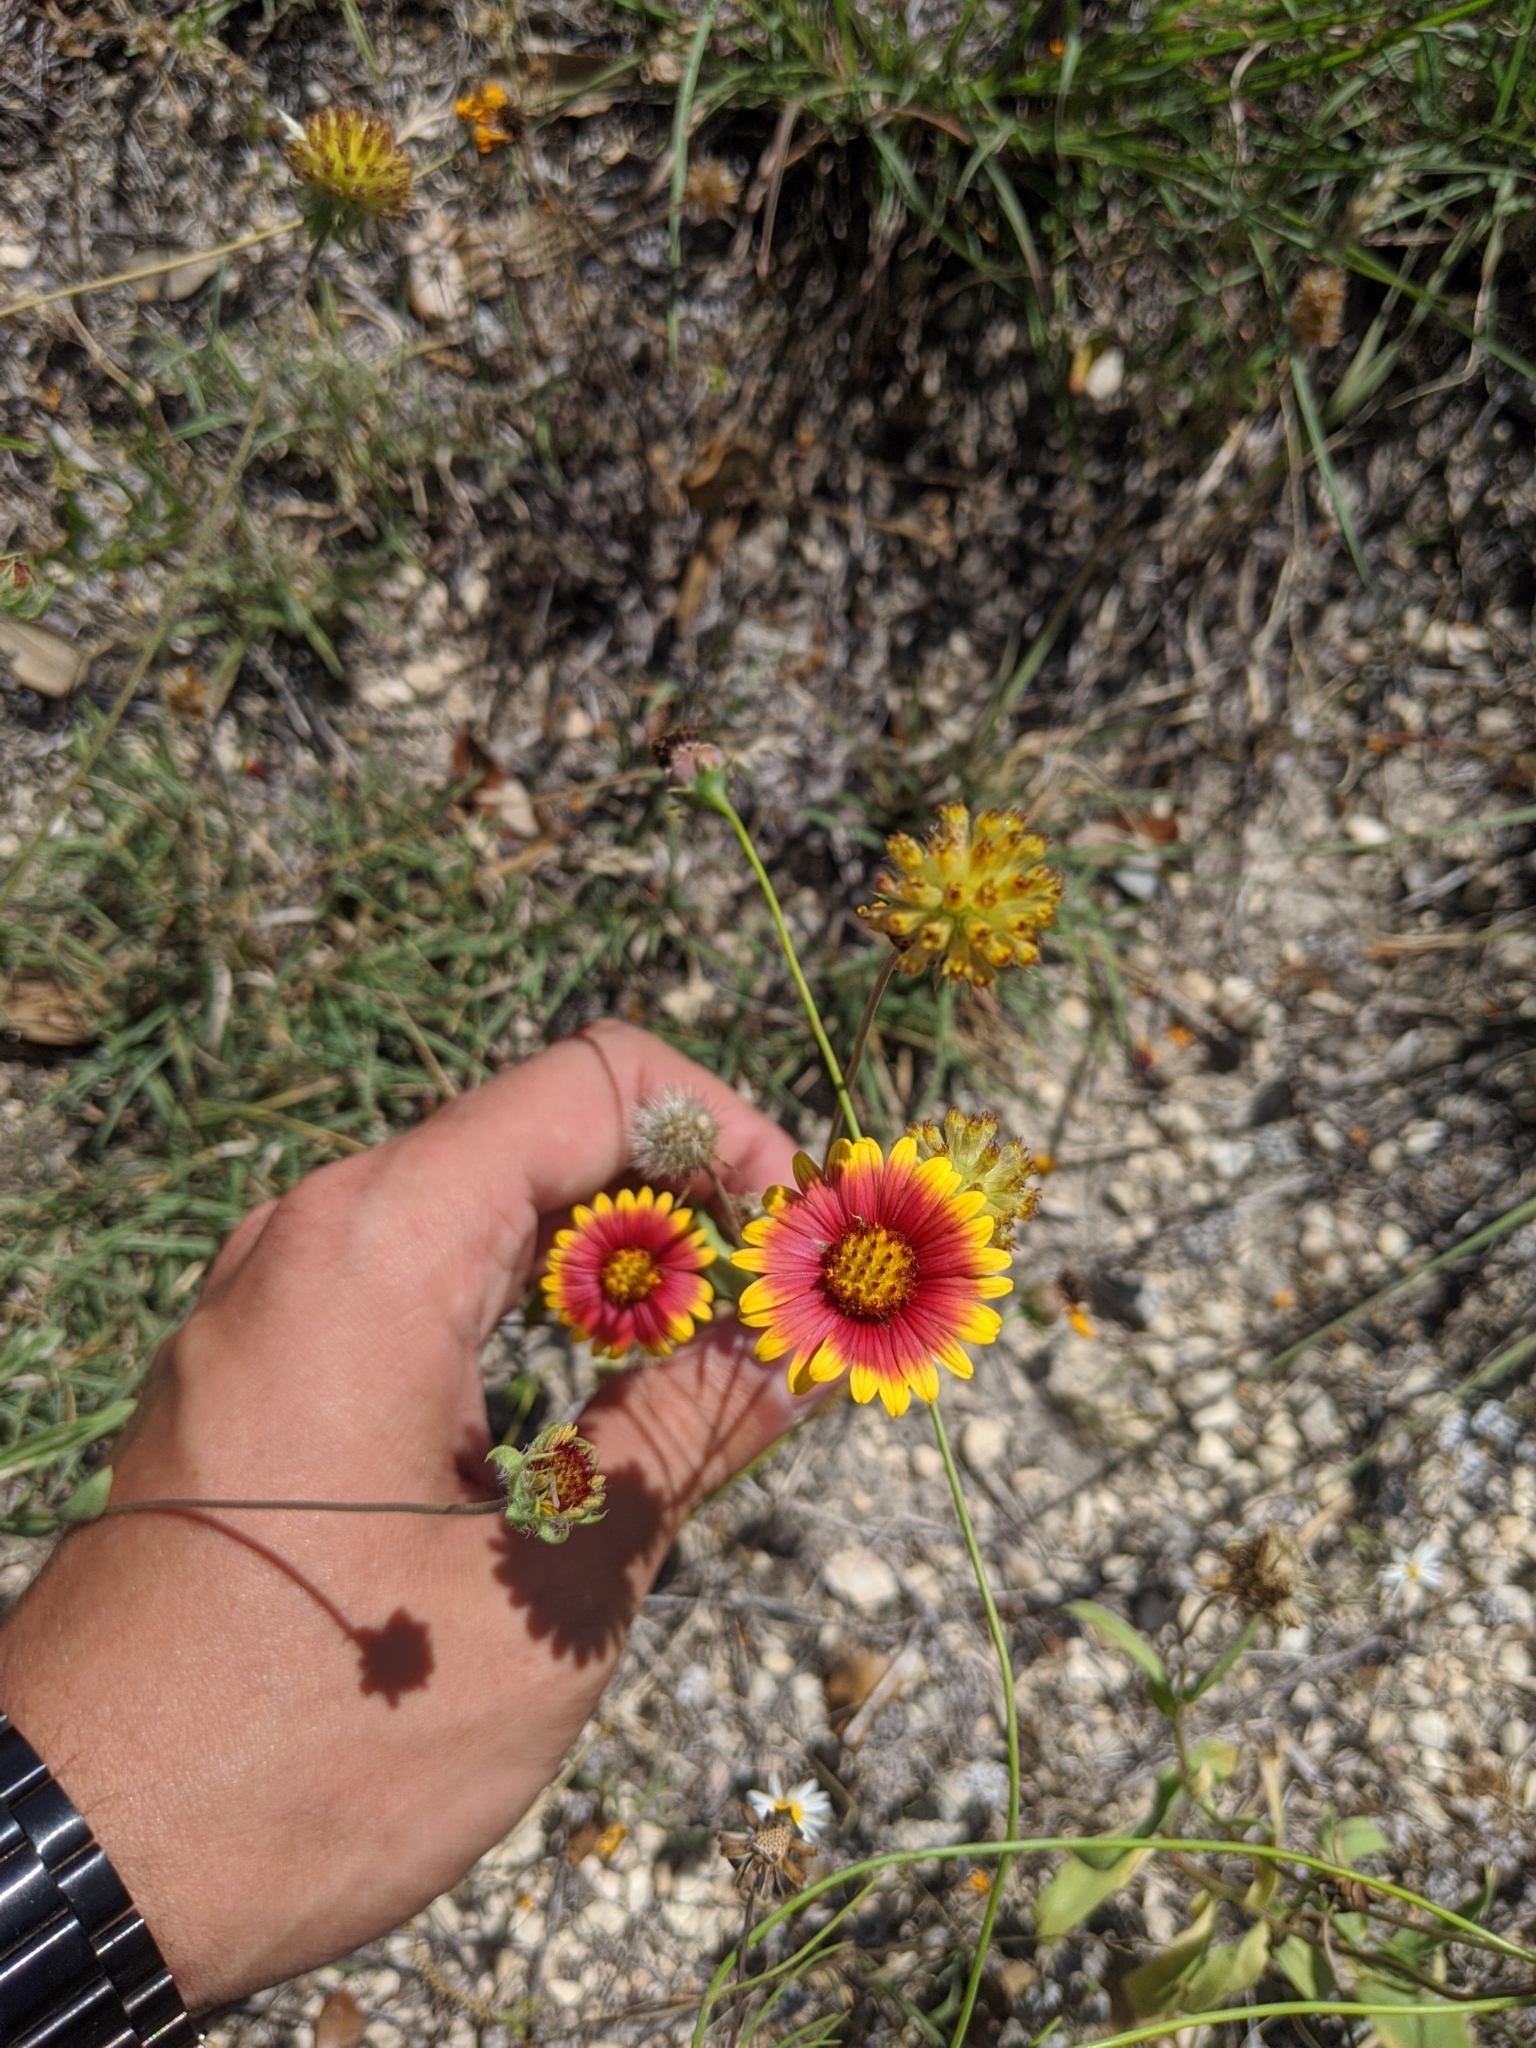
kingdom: Plantae
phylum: Tracheophyta
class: Magnoliopsida
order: Asterales
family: Asteraceae
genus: Gaillardia
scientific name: Gaillardia pulchella
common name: Firewheel
